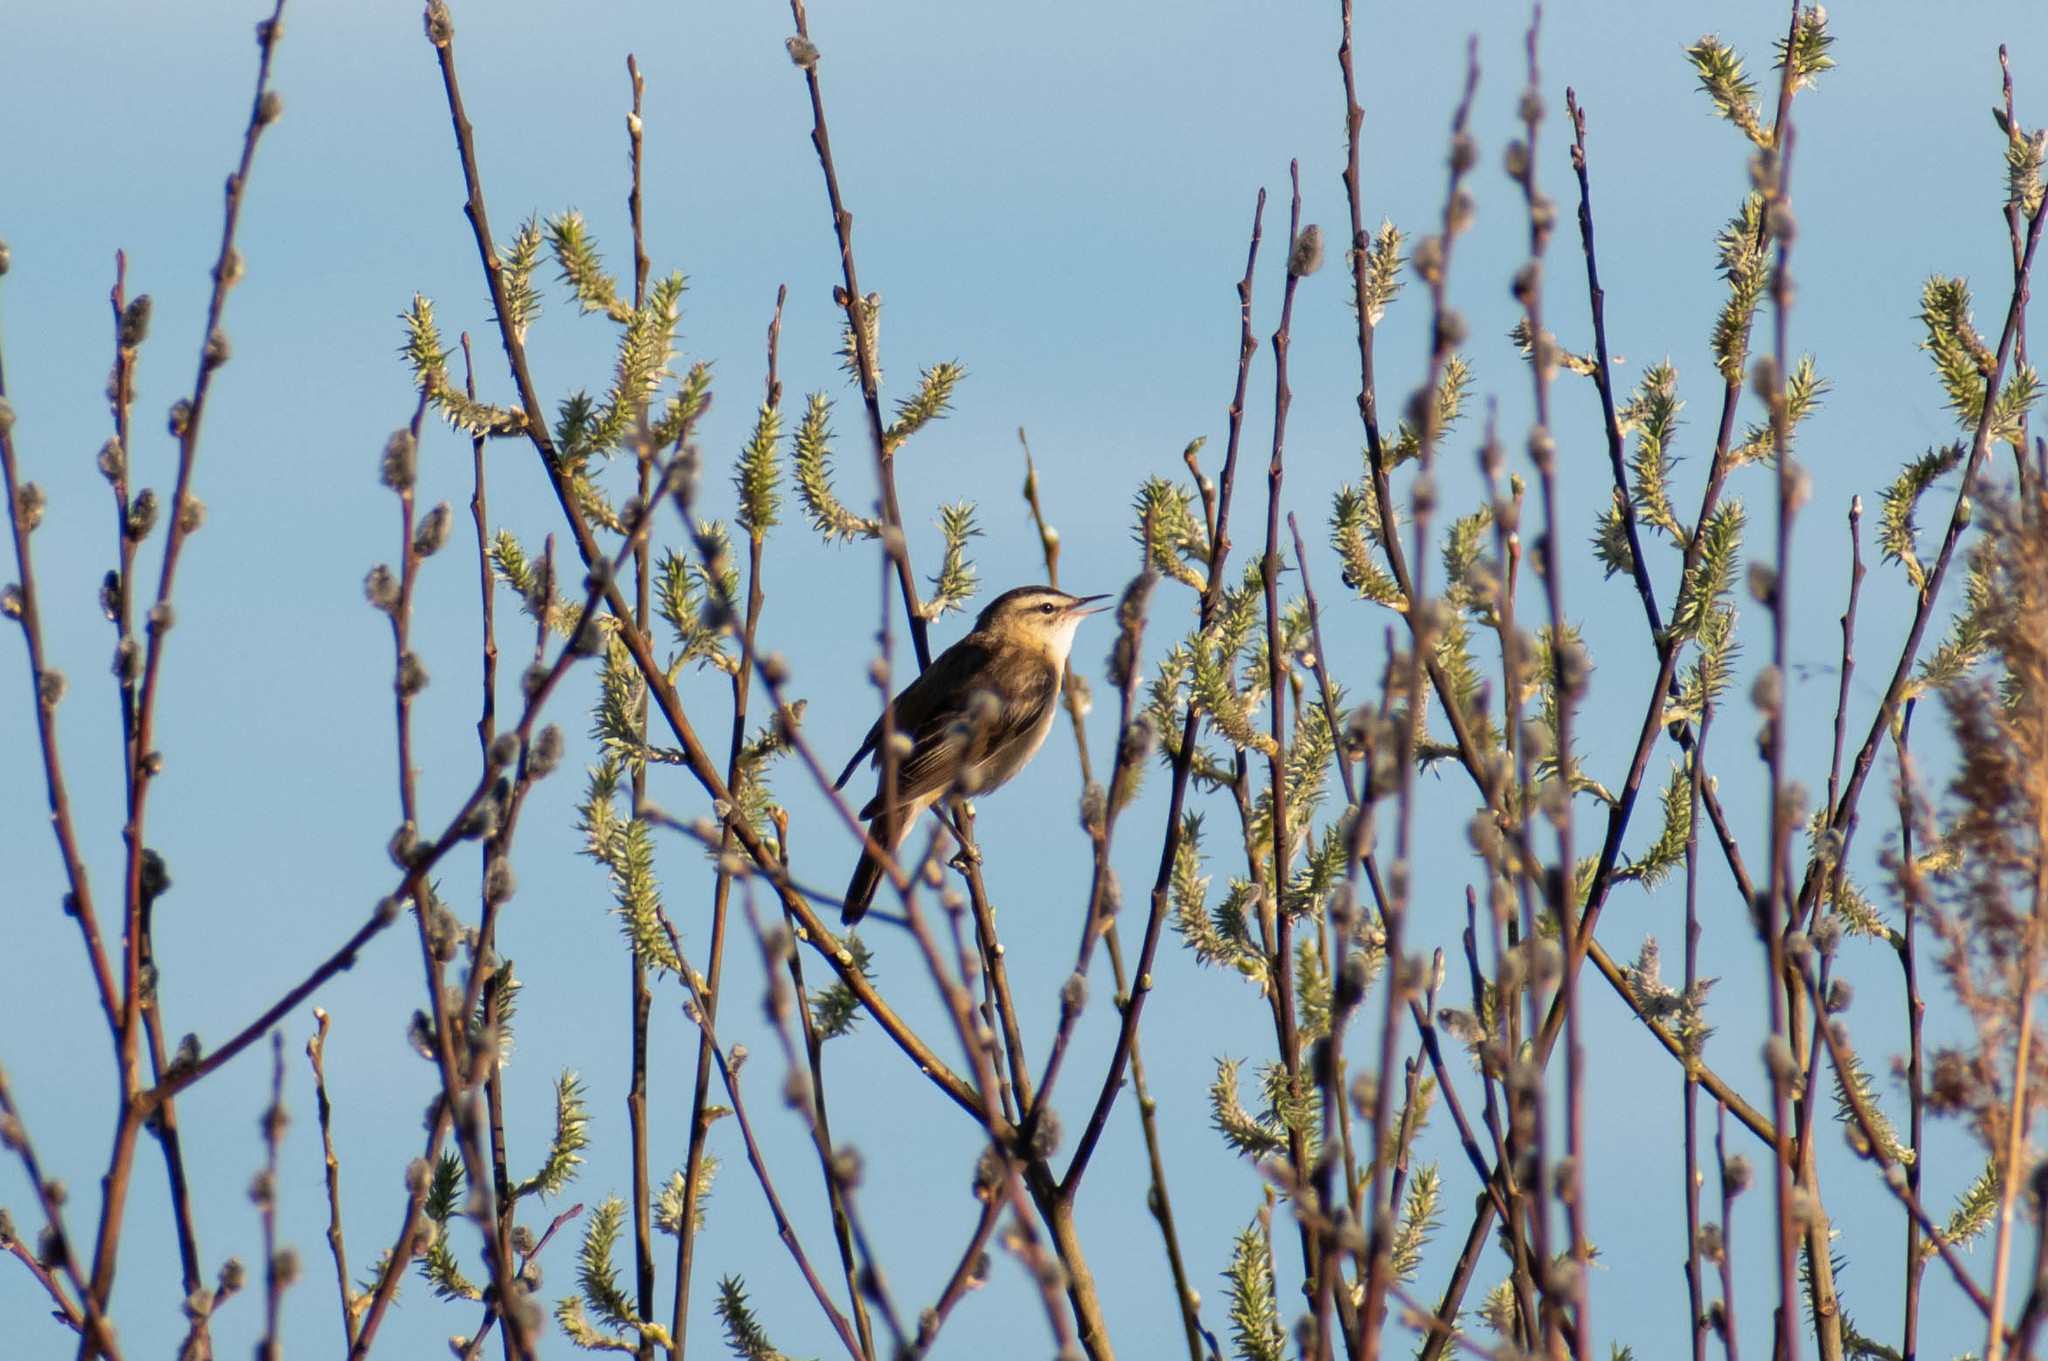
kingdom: Animalia
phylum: Chordata
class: Aves
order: Passeriformes
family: Acrocephalidae
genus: Acrocephalus
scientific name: Acrocephalus schoenobaenus
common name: Sedge warbler
